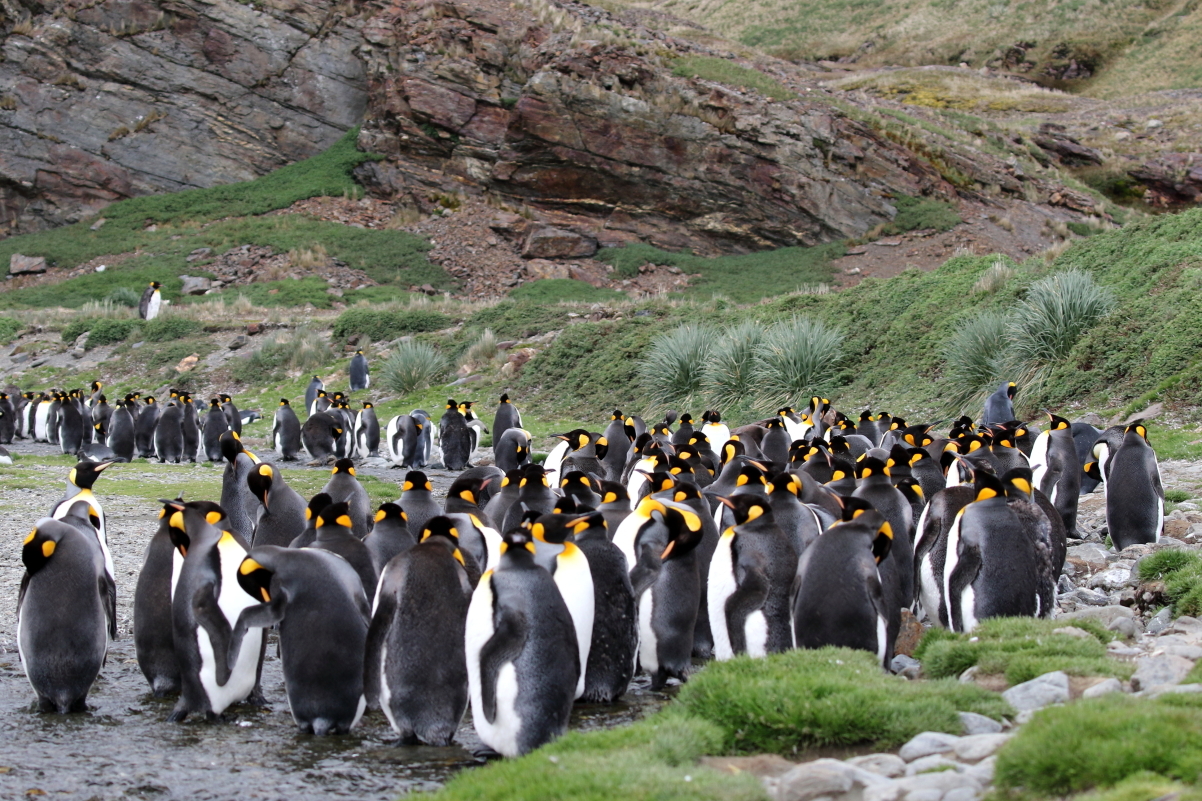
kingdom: Animalia
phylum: Chordata
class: Aves
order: Sphenisciformes
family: Spheniscidae
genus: Aptenodytes
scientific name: Aptenodytes patagonicus
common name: King penguin
